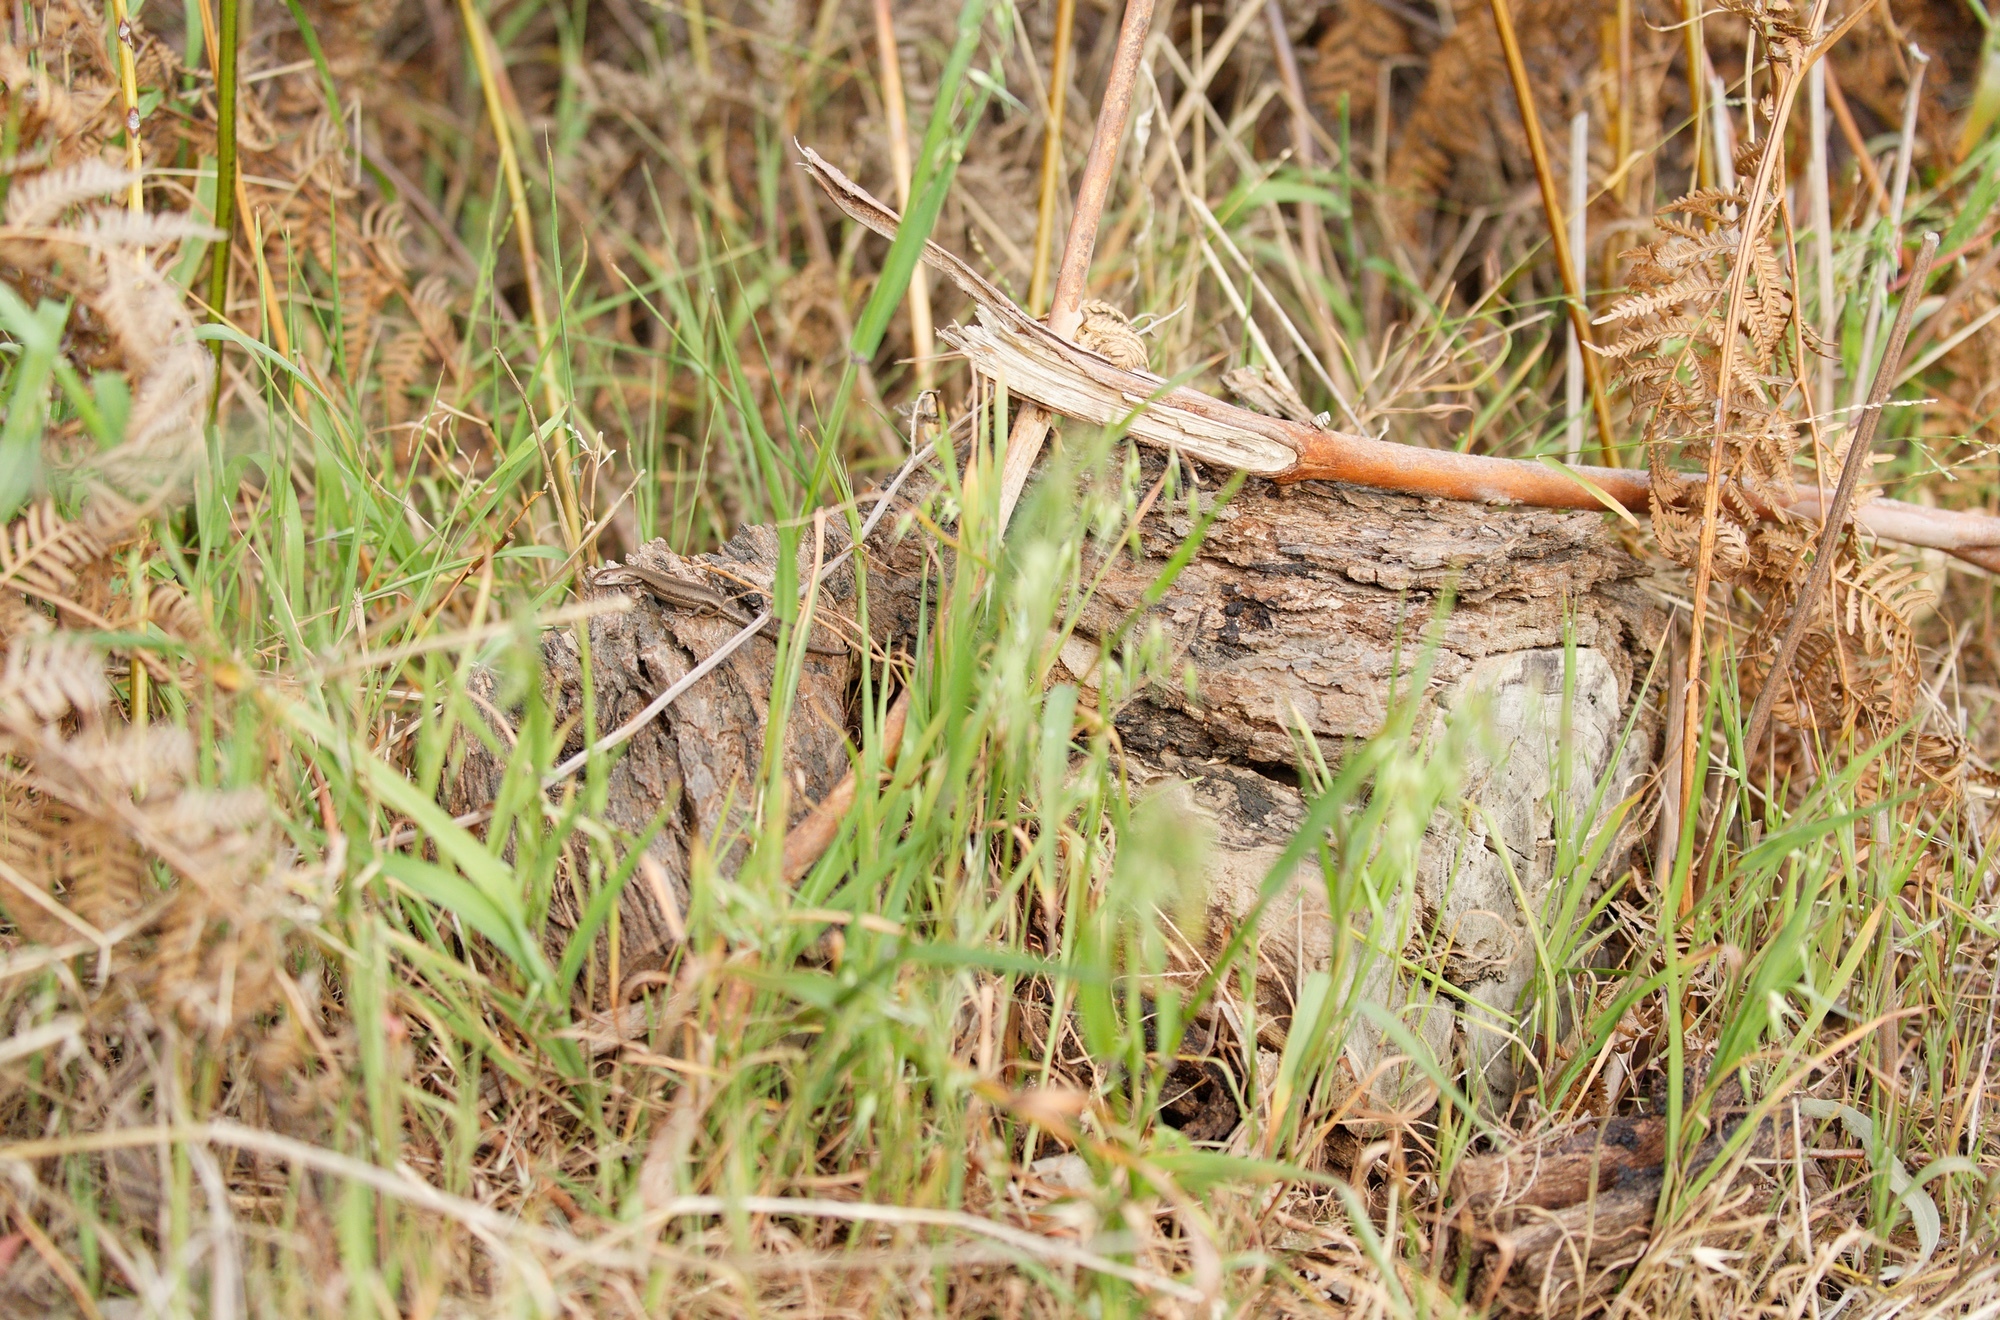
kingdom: Animalia
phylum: Chordata
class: Squamata
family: Scincidae
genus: Lampropholis
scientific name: Lampropholis guichenoti
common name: Garden skink
